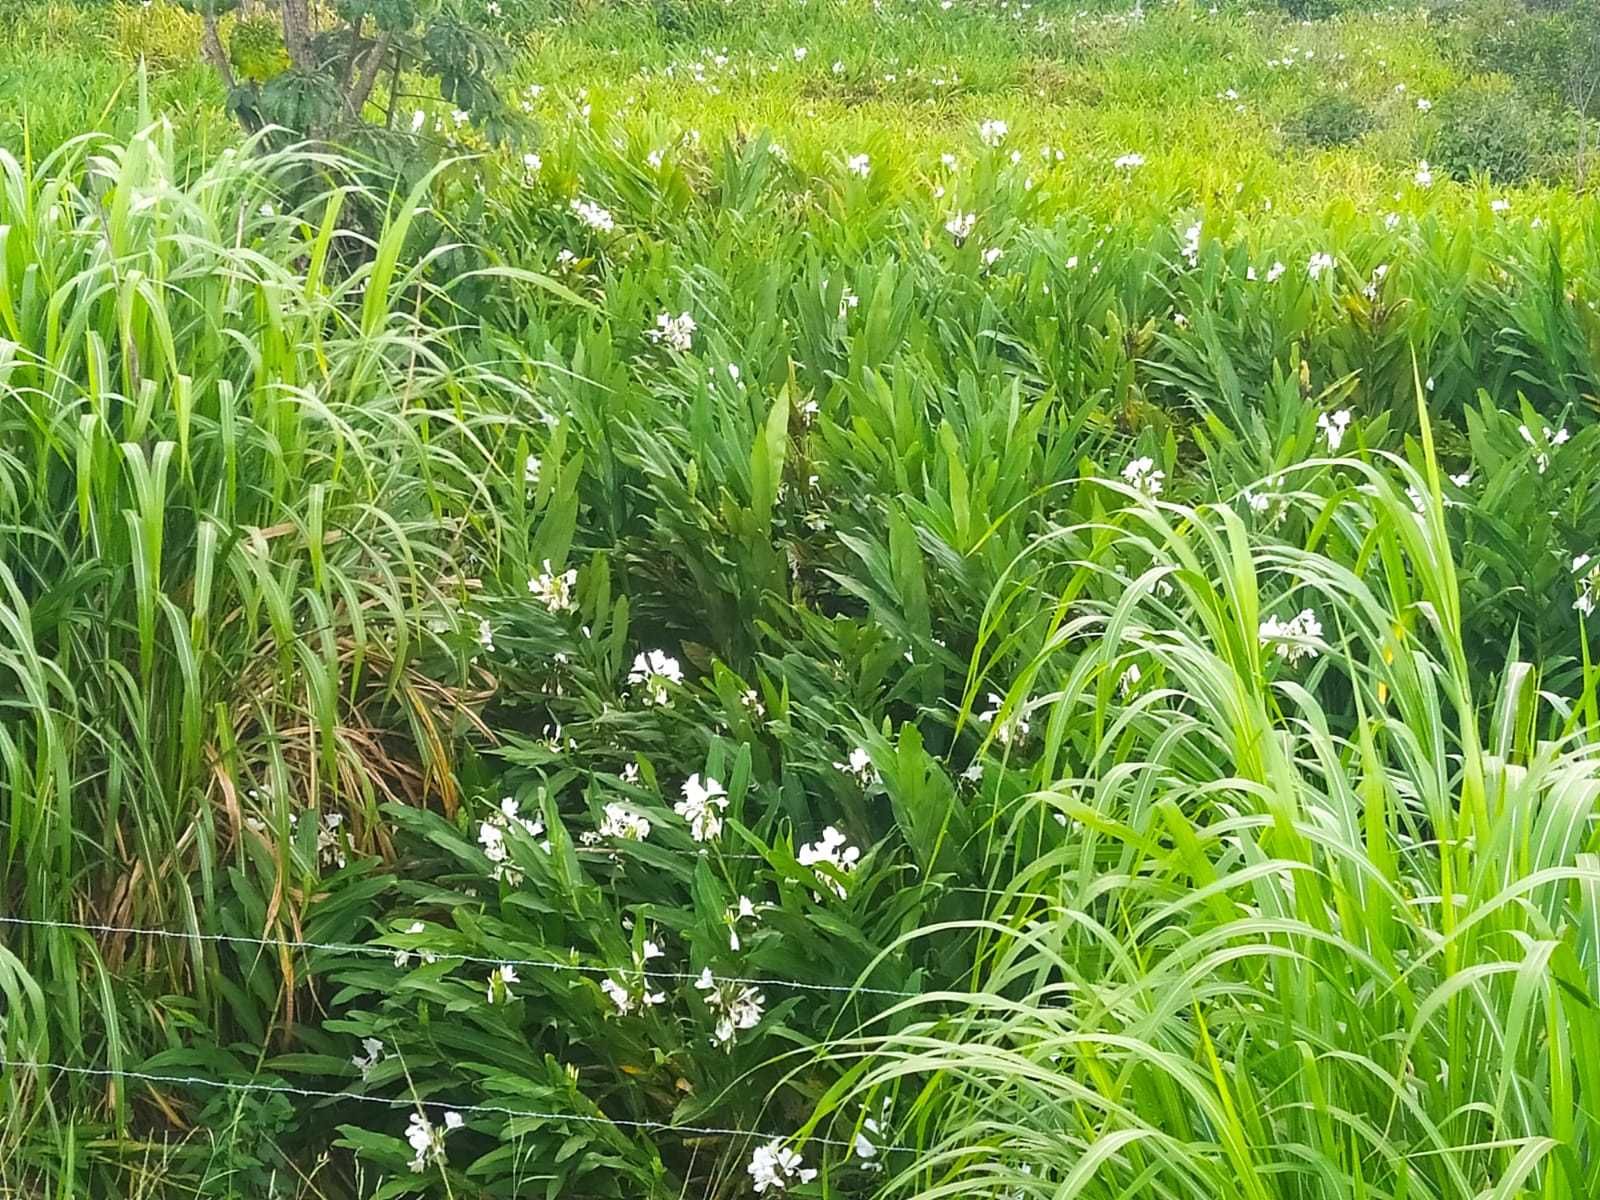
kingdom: Plantae
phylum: Tracheophyta
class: Liliopsida
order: Zingiberales
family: Zingiberaceae
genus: Hedychium
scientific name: Hedychium coronarium
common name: White garland-lily
